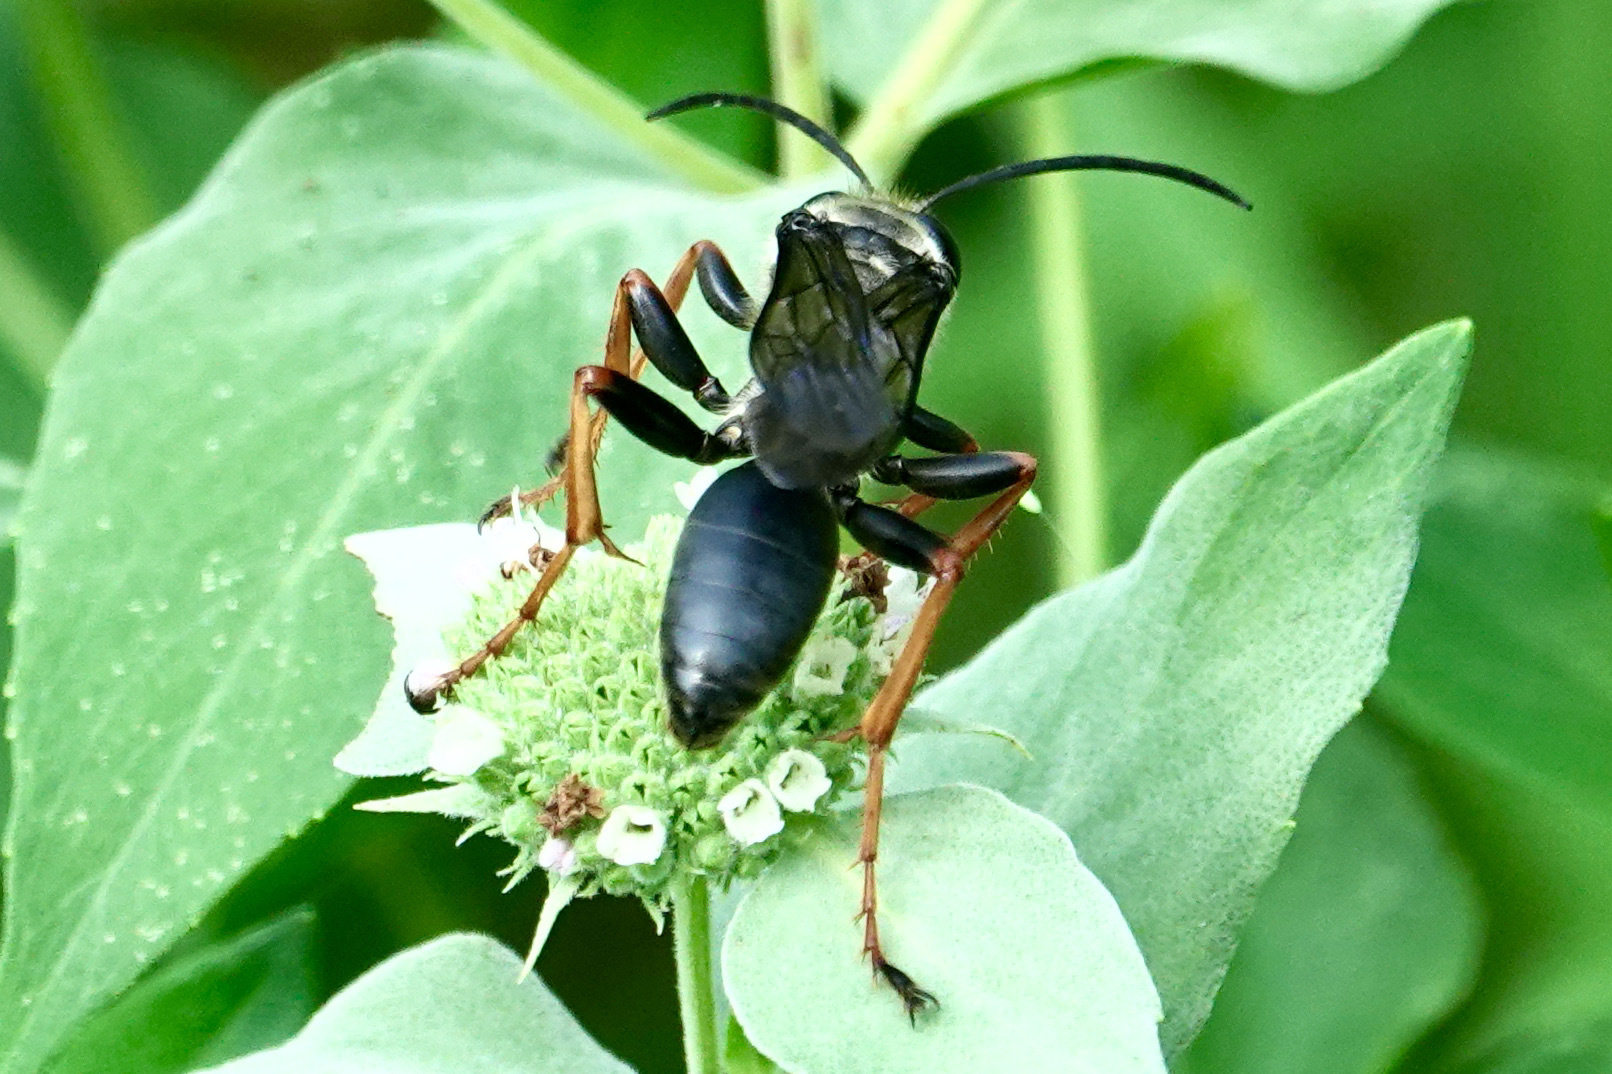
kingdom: Animalia
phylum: Arthropoda
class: Insecta
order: Hymenoptera
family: Sphecidae
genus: Sphex
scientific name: Sphex nudus
